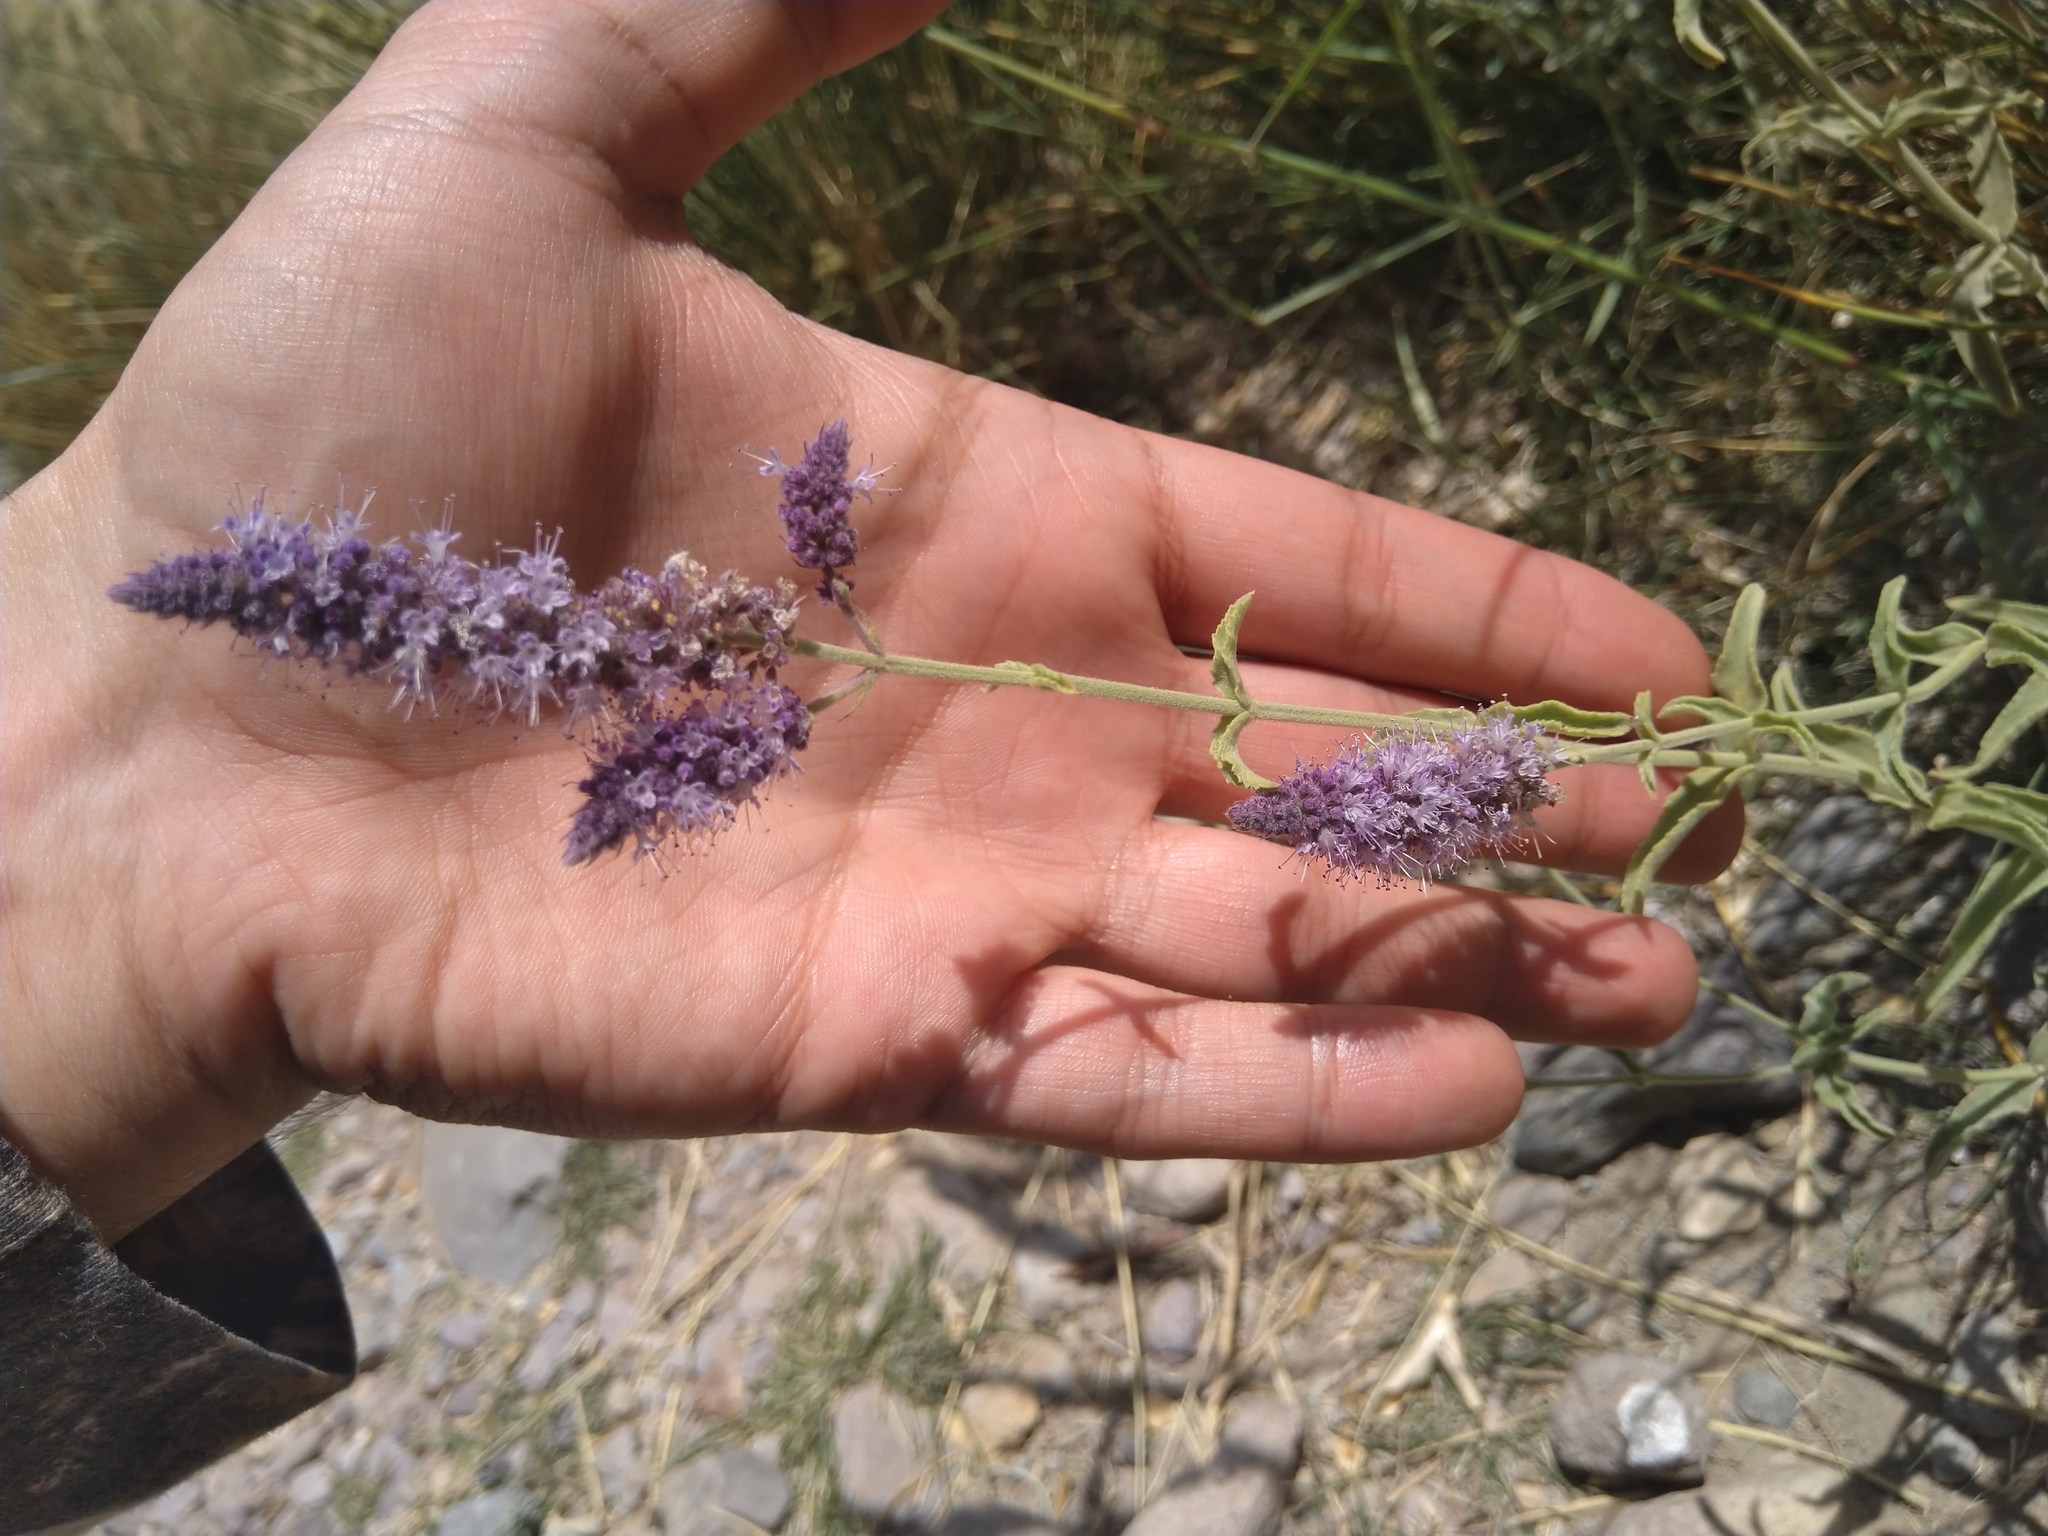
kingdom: Plantae
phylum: Tracheophyta
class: Magnoliopsida
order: Lamiales
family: Lamiaceae
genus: Mentha
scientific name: Mentha longifolia
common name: Horse mint
